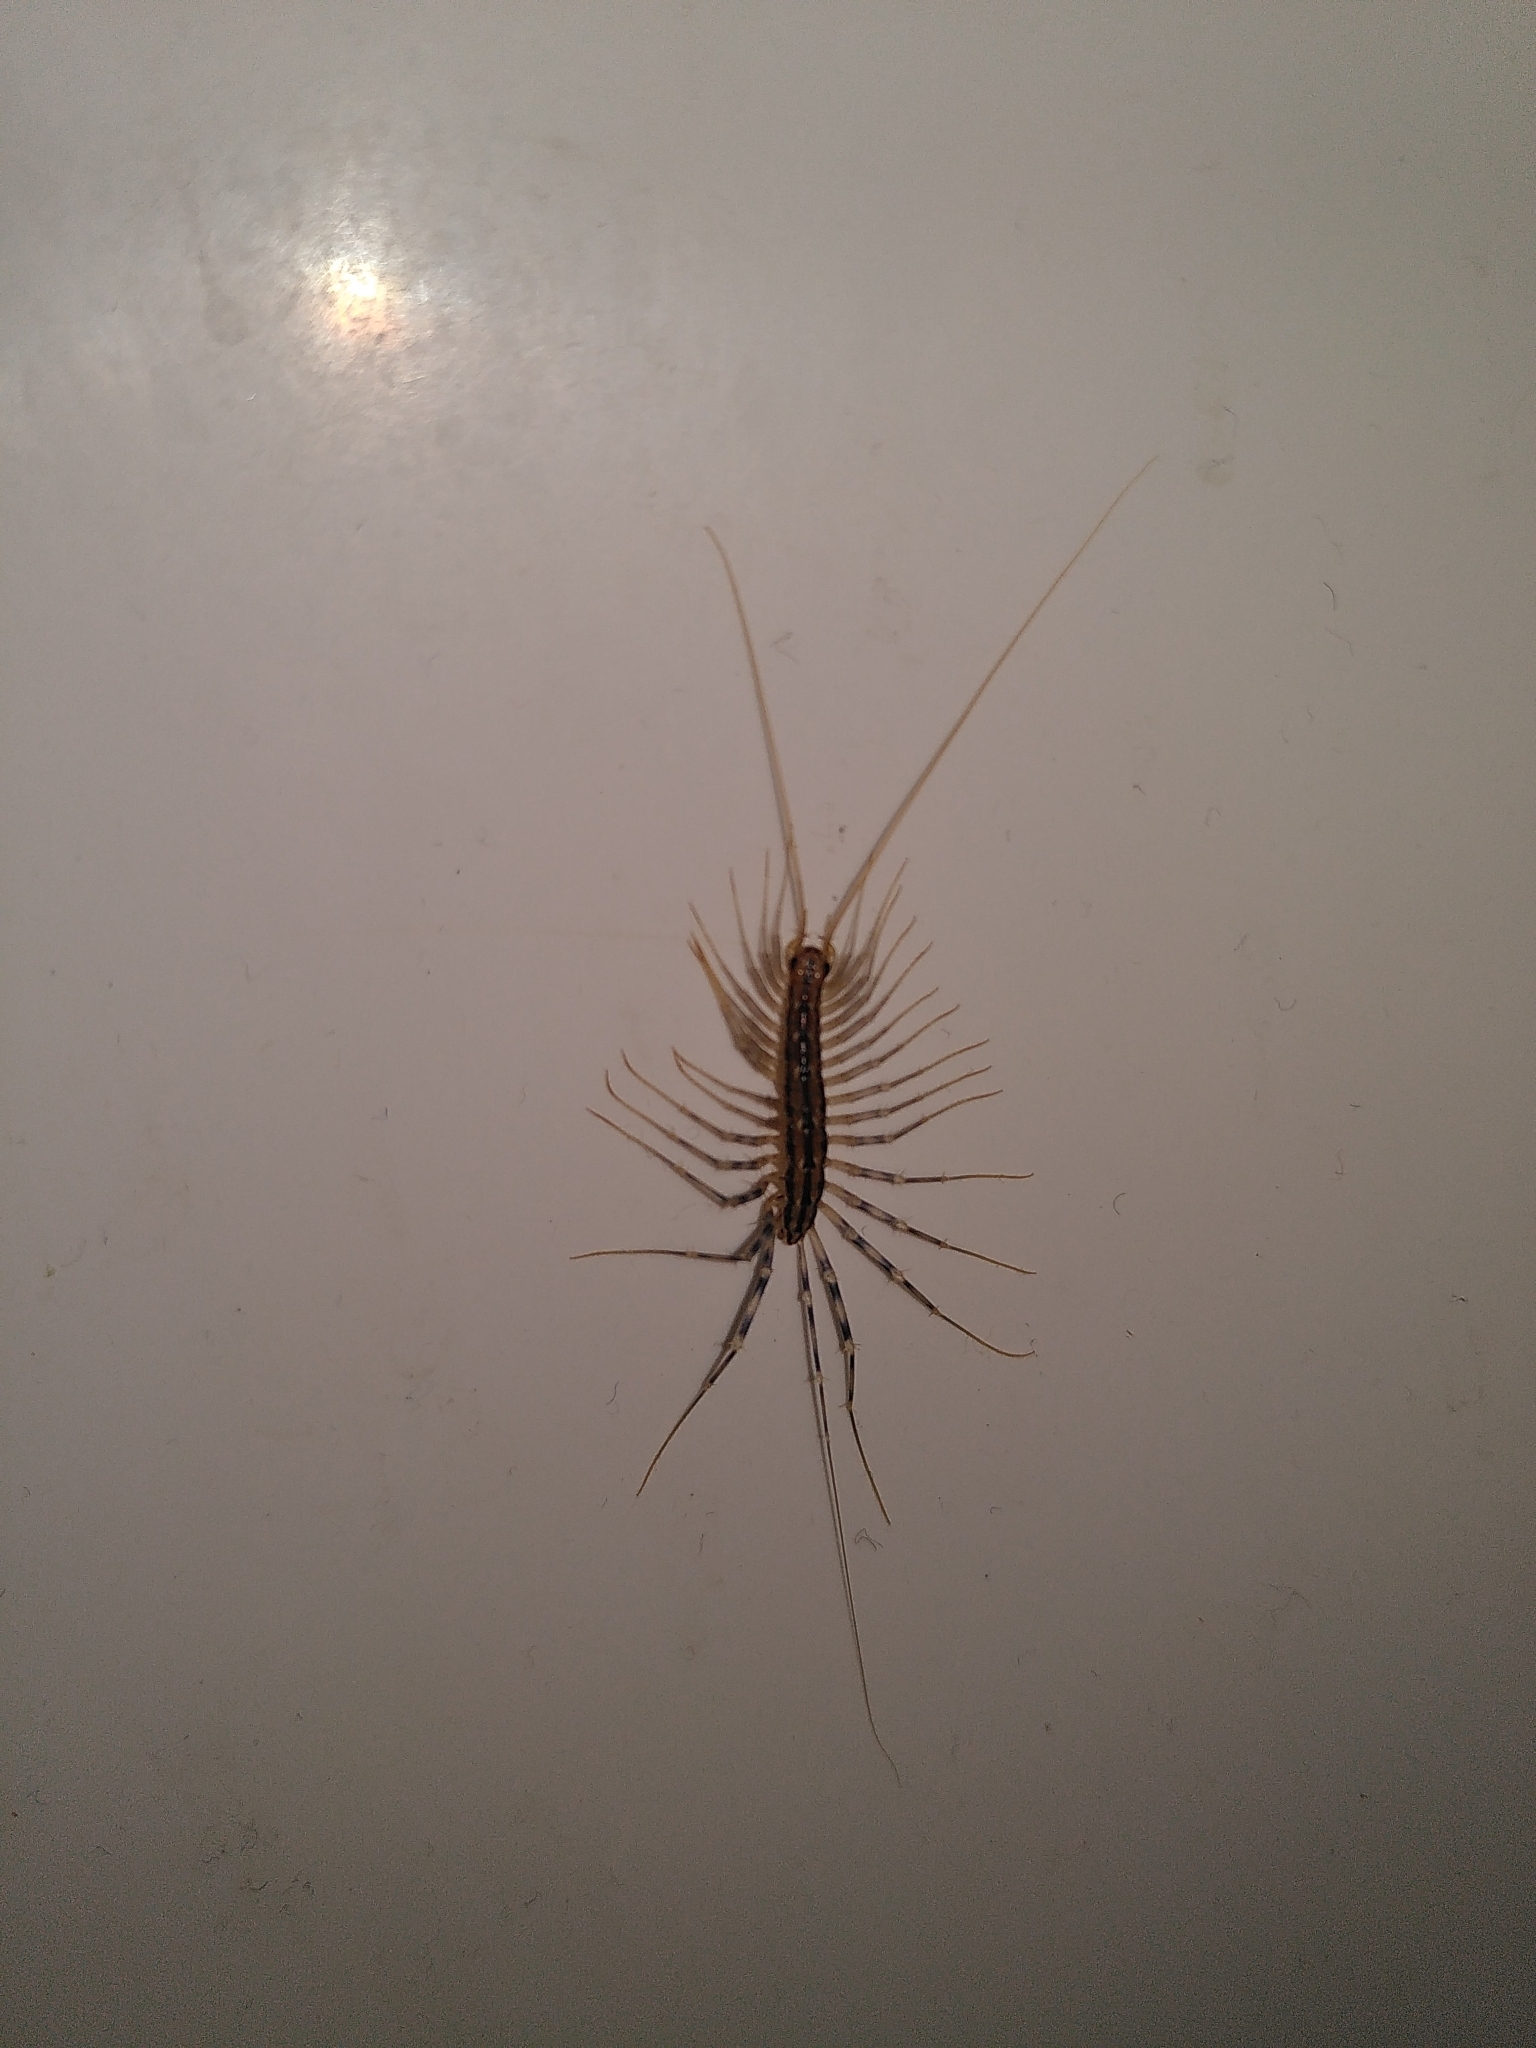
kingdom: Animalia
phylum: Arthropoda
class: Chilopoda
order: Scutigeromorpha
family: Scutigeridae
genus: Scutigera
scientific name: Scutigera coleoptrata
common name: House centipede
